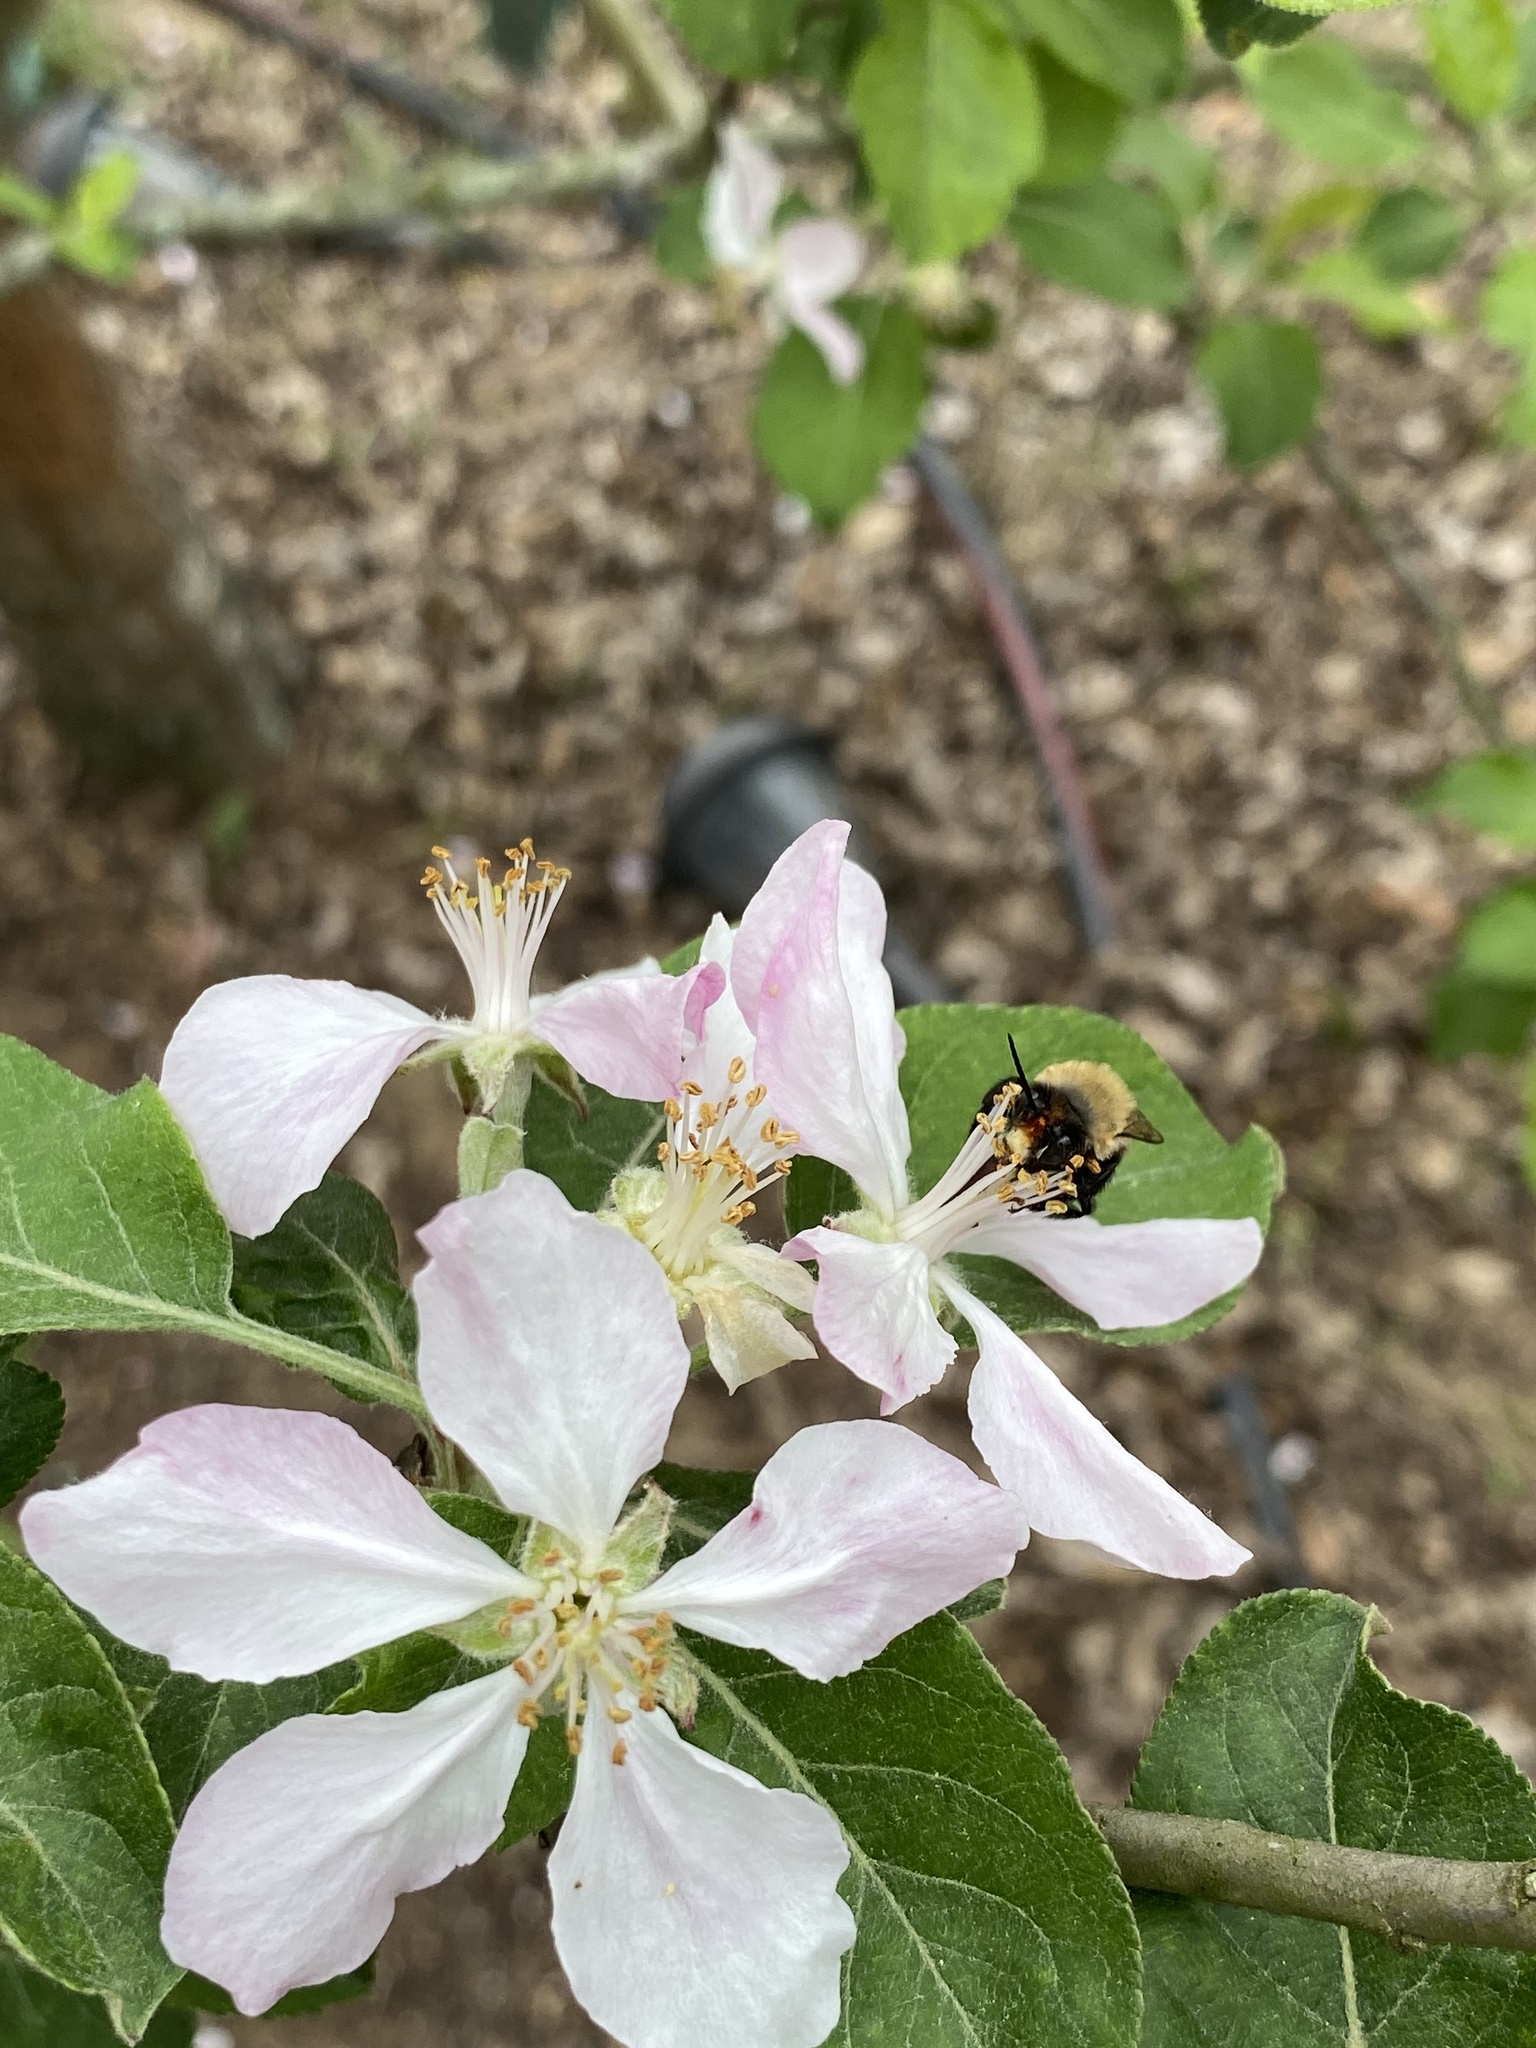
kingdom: Animalia
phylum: Arthropoda
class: Insecta
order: Hymenoptera
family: Apidae
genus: Habropoda
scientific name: Habropoda laboriosa
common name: Southeastern blueberry bee
